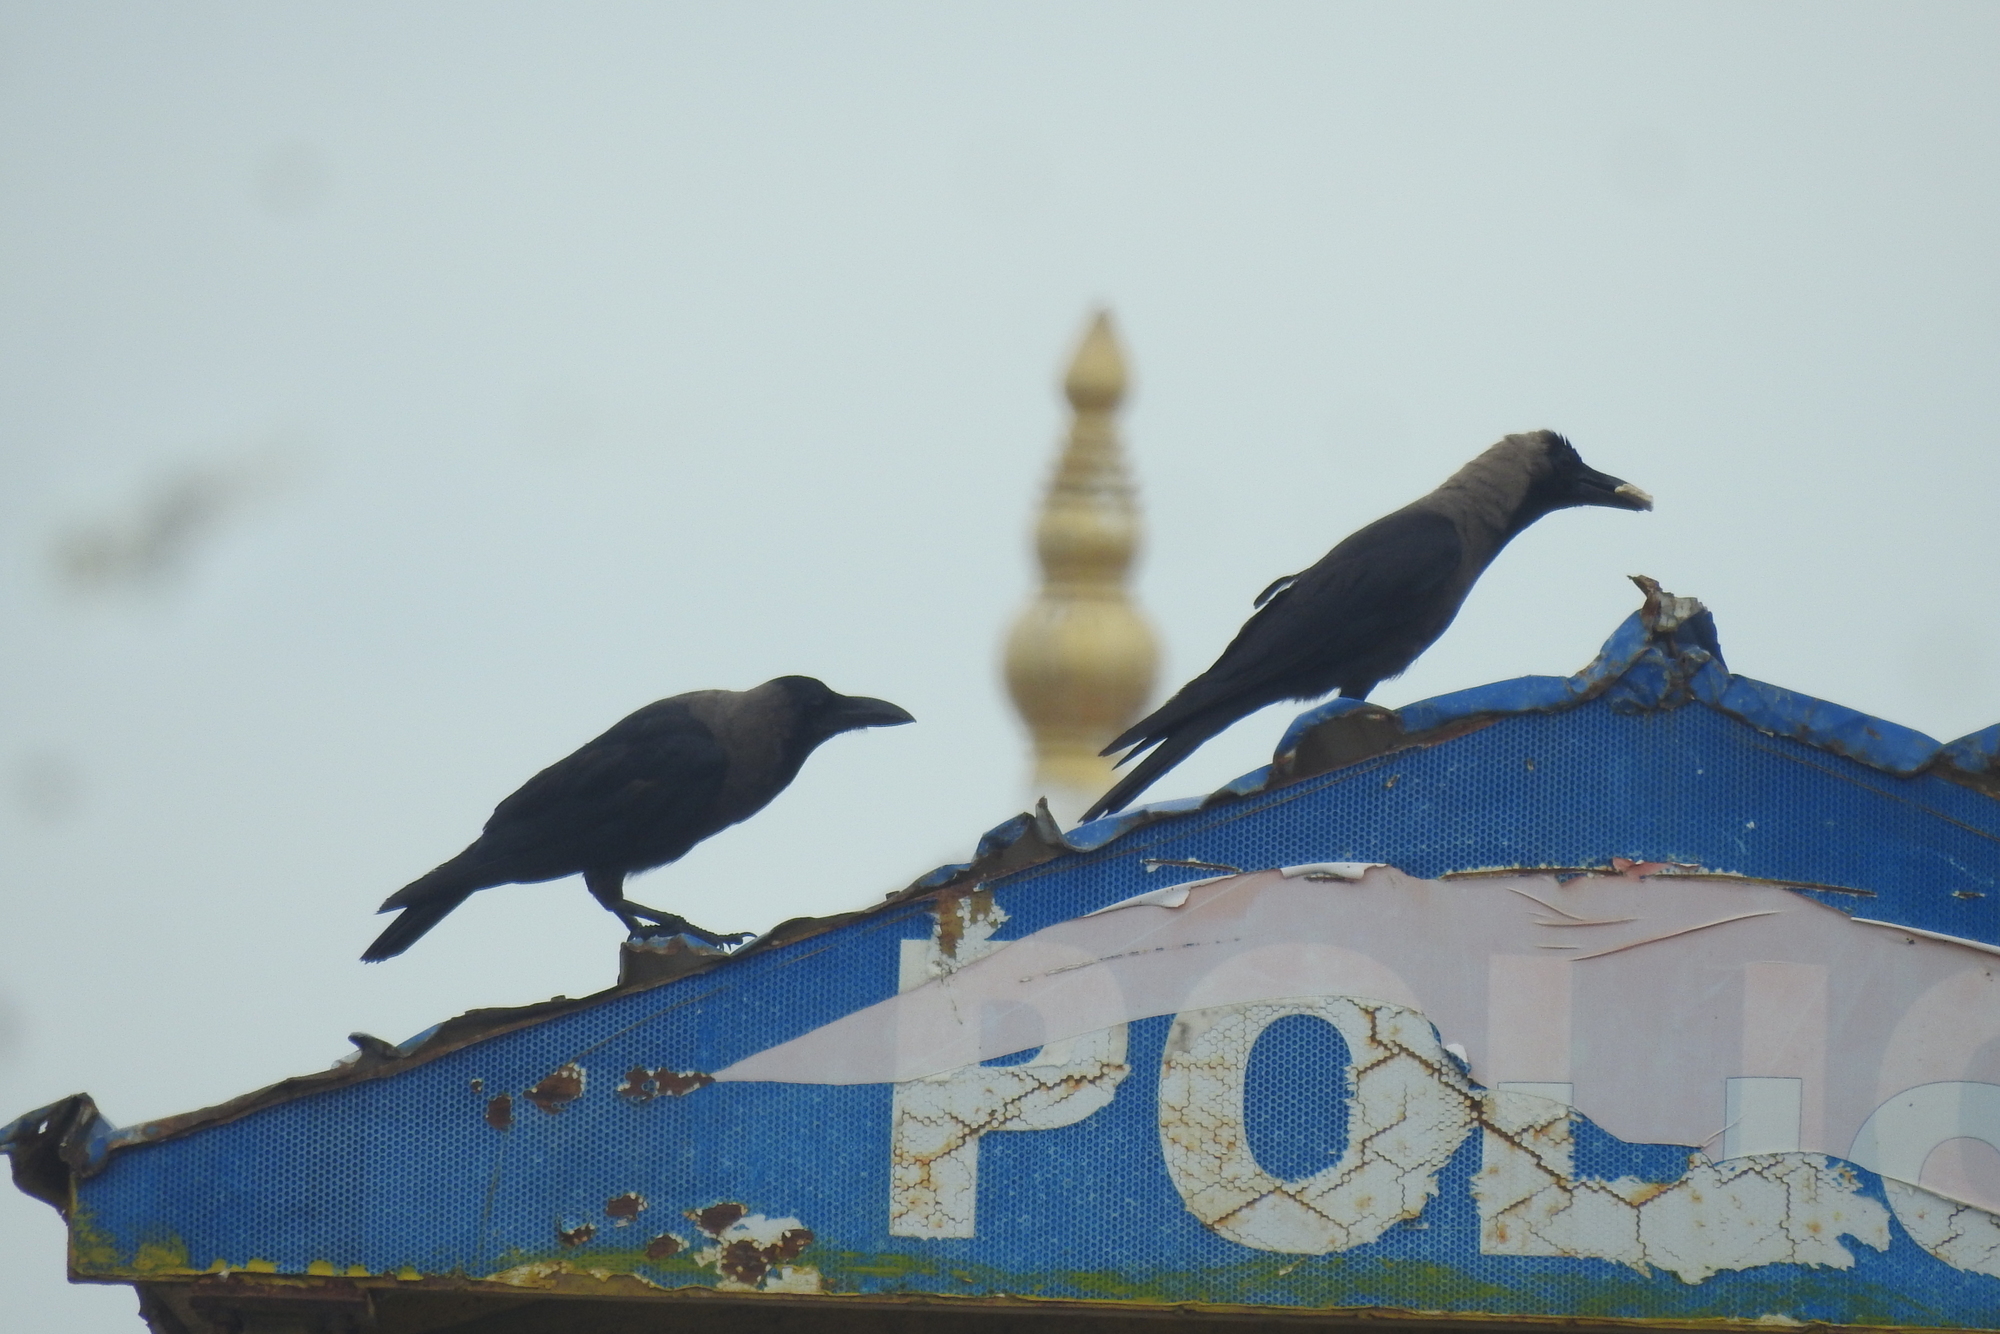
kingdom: Animalia
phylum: Chordata
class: Aves
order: Passeriformes
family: Corvidae
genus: Corvus
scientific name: Corvus splendens
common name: House crow
